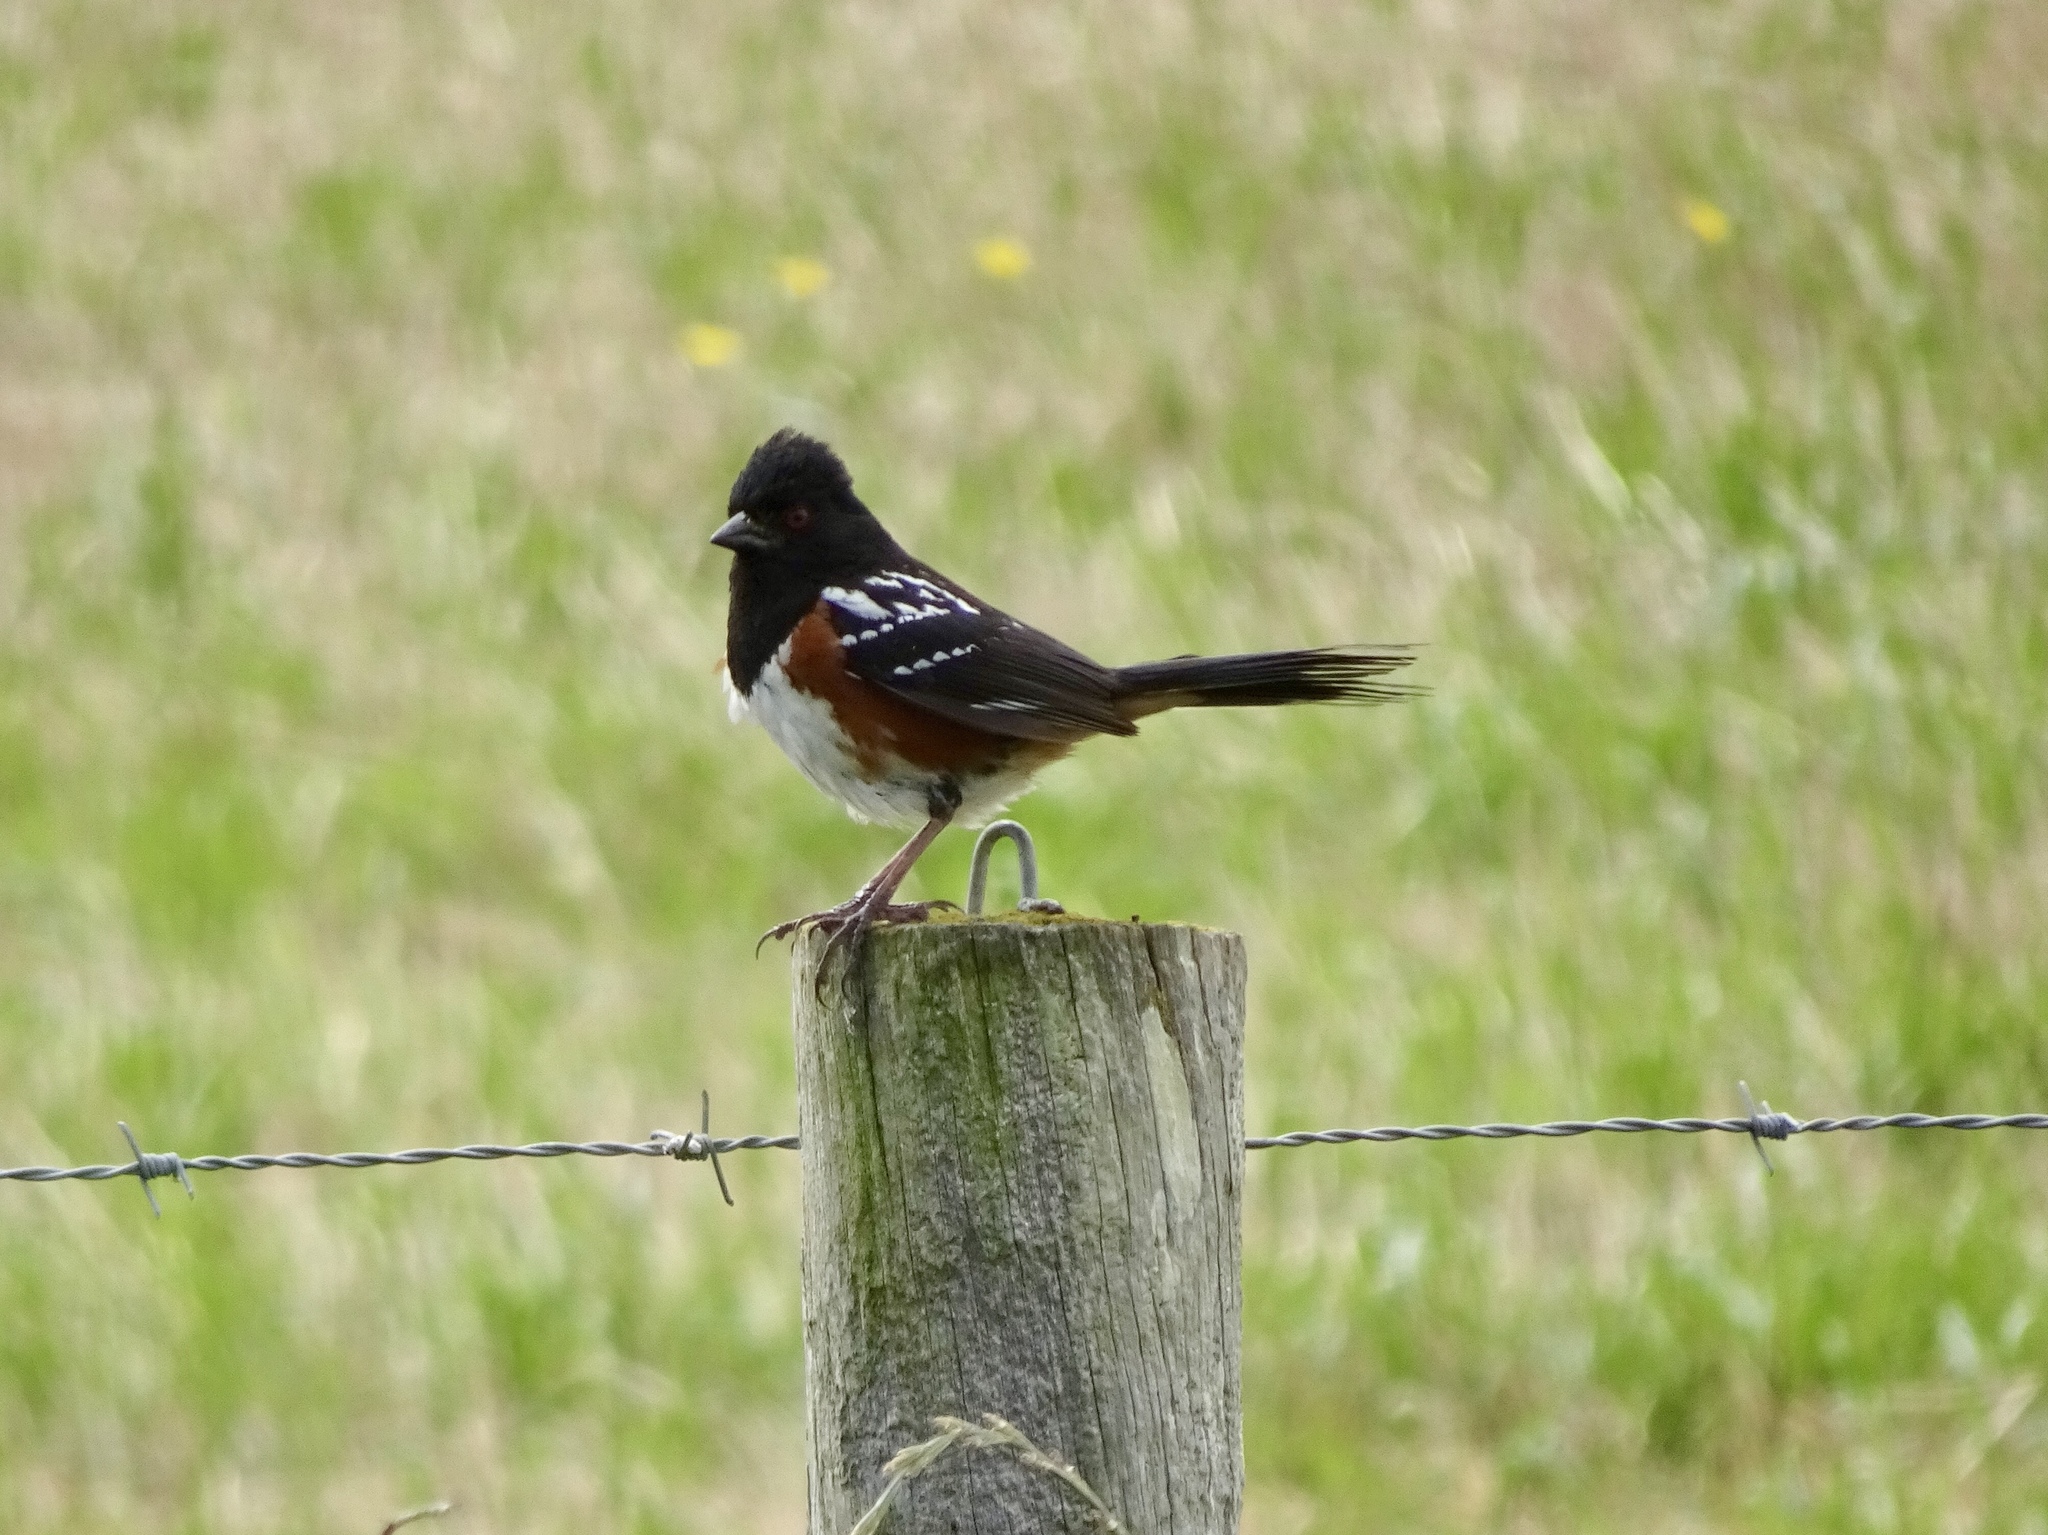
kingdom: Animalia
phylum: Chordata
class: Aves
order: Passeriformes
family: Passerellidae
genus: Pipilo
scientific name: Pipilo maculatus
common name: Spotted towhee
